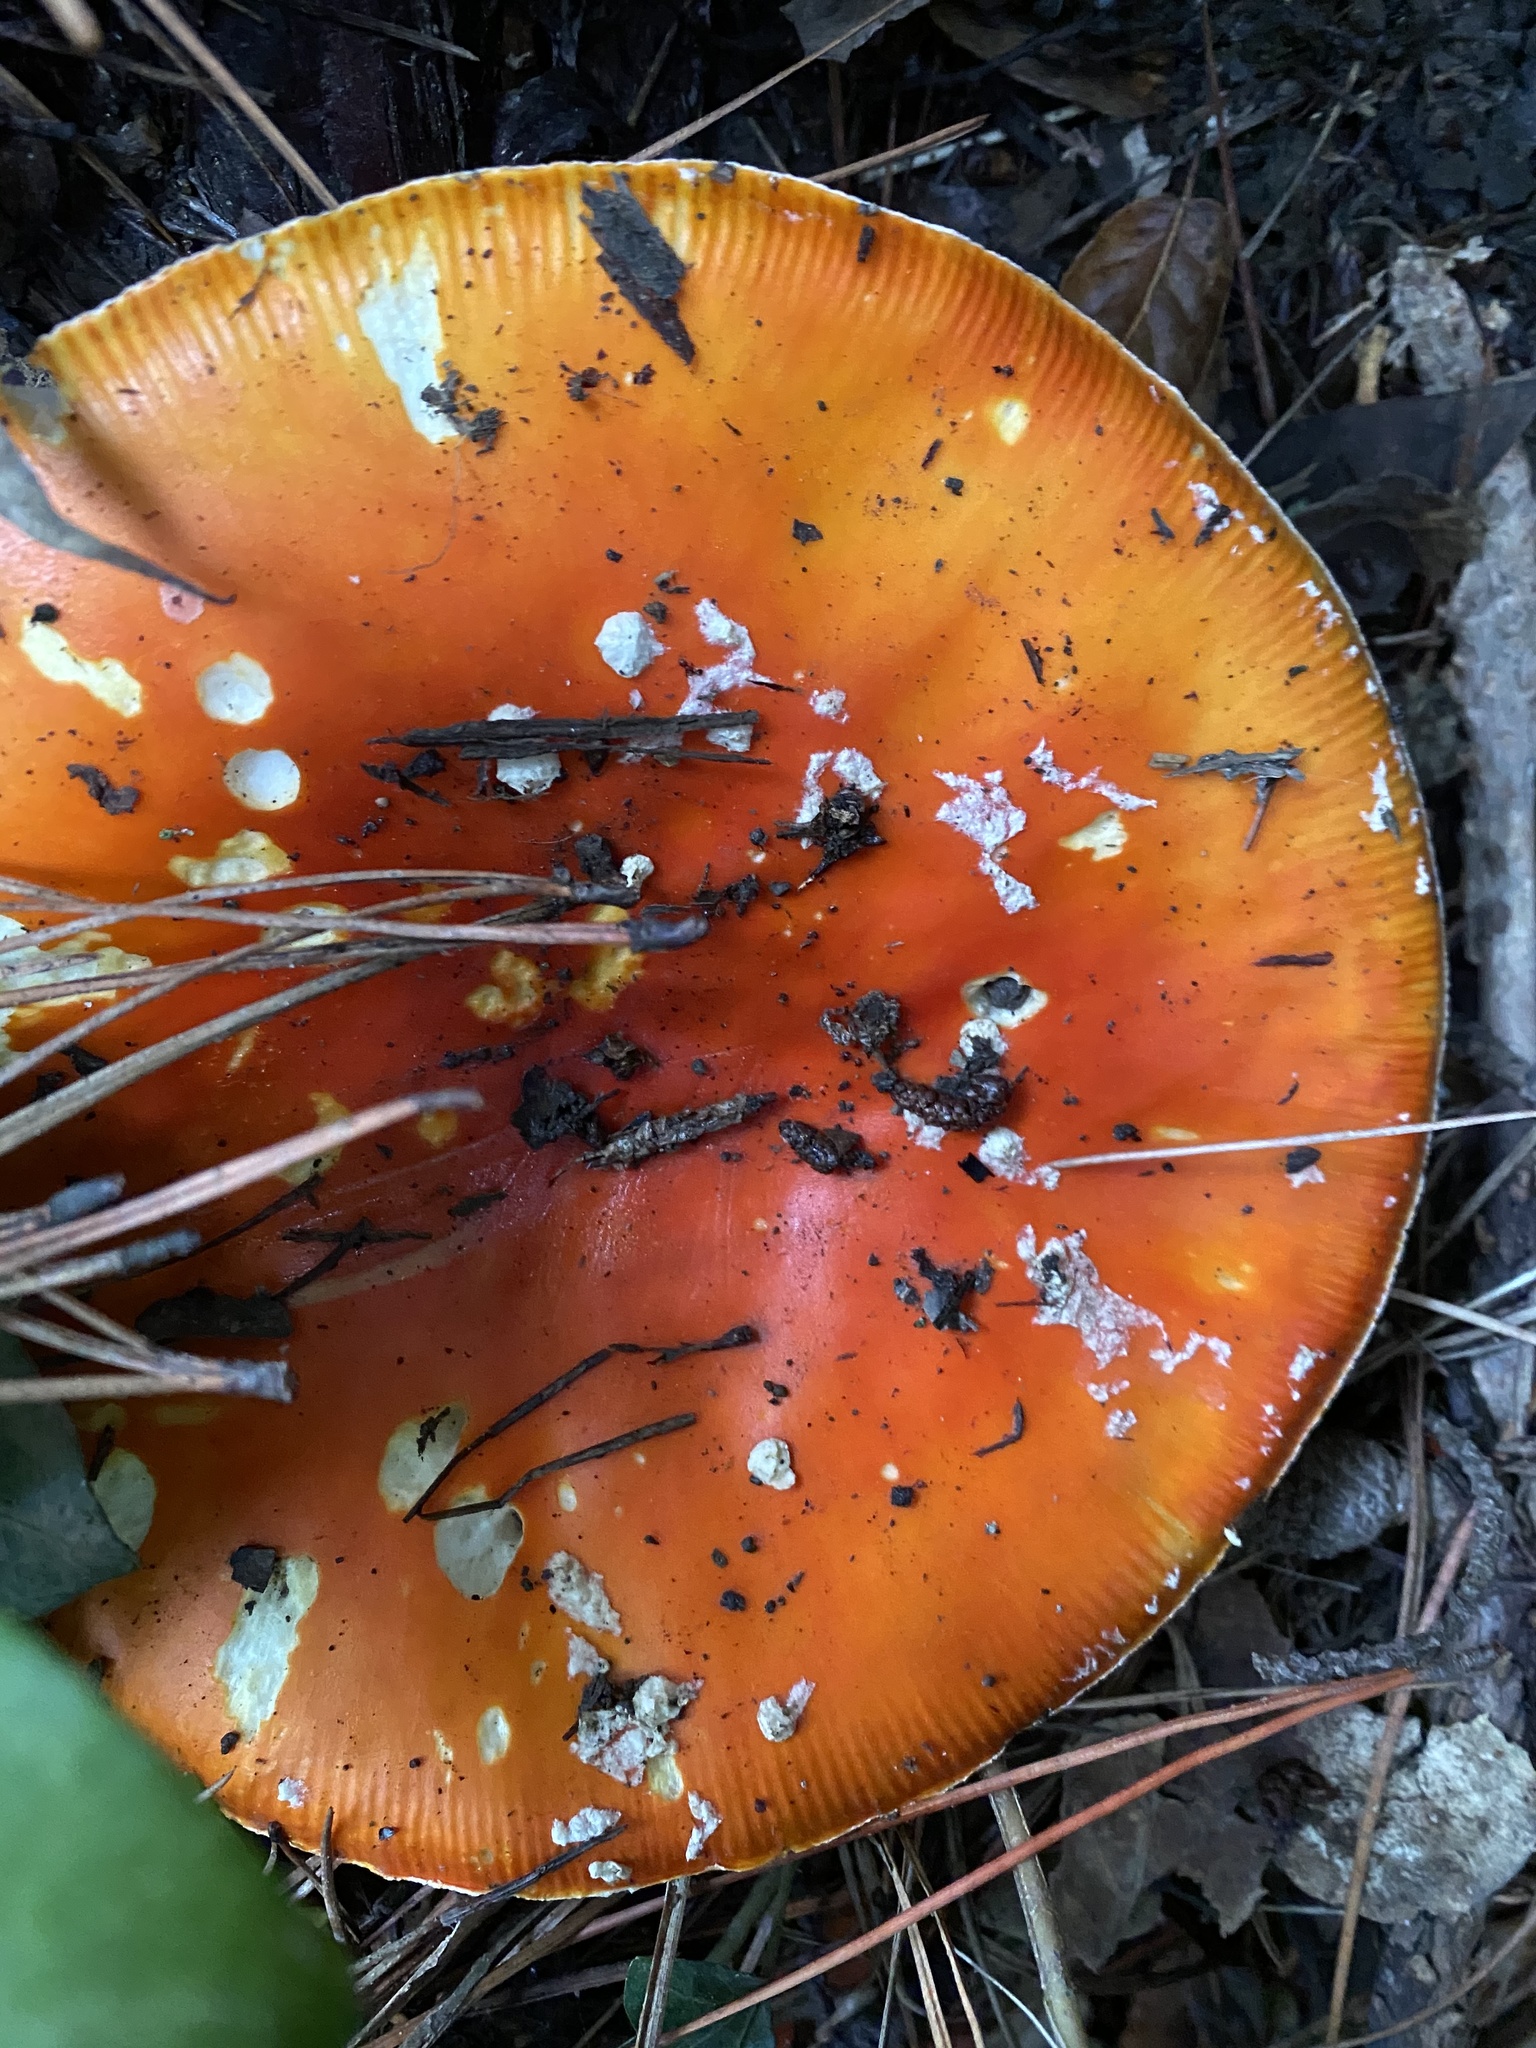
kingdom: Fungi
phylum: Basidiomycota
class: Agaricomycetes
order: Agaricales
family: Amanitaceae
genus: Amanita
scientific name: Amanita muscaria
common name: Fly agaric
